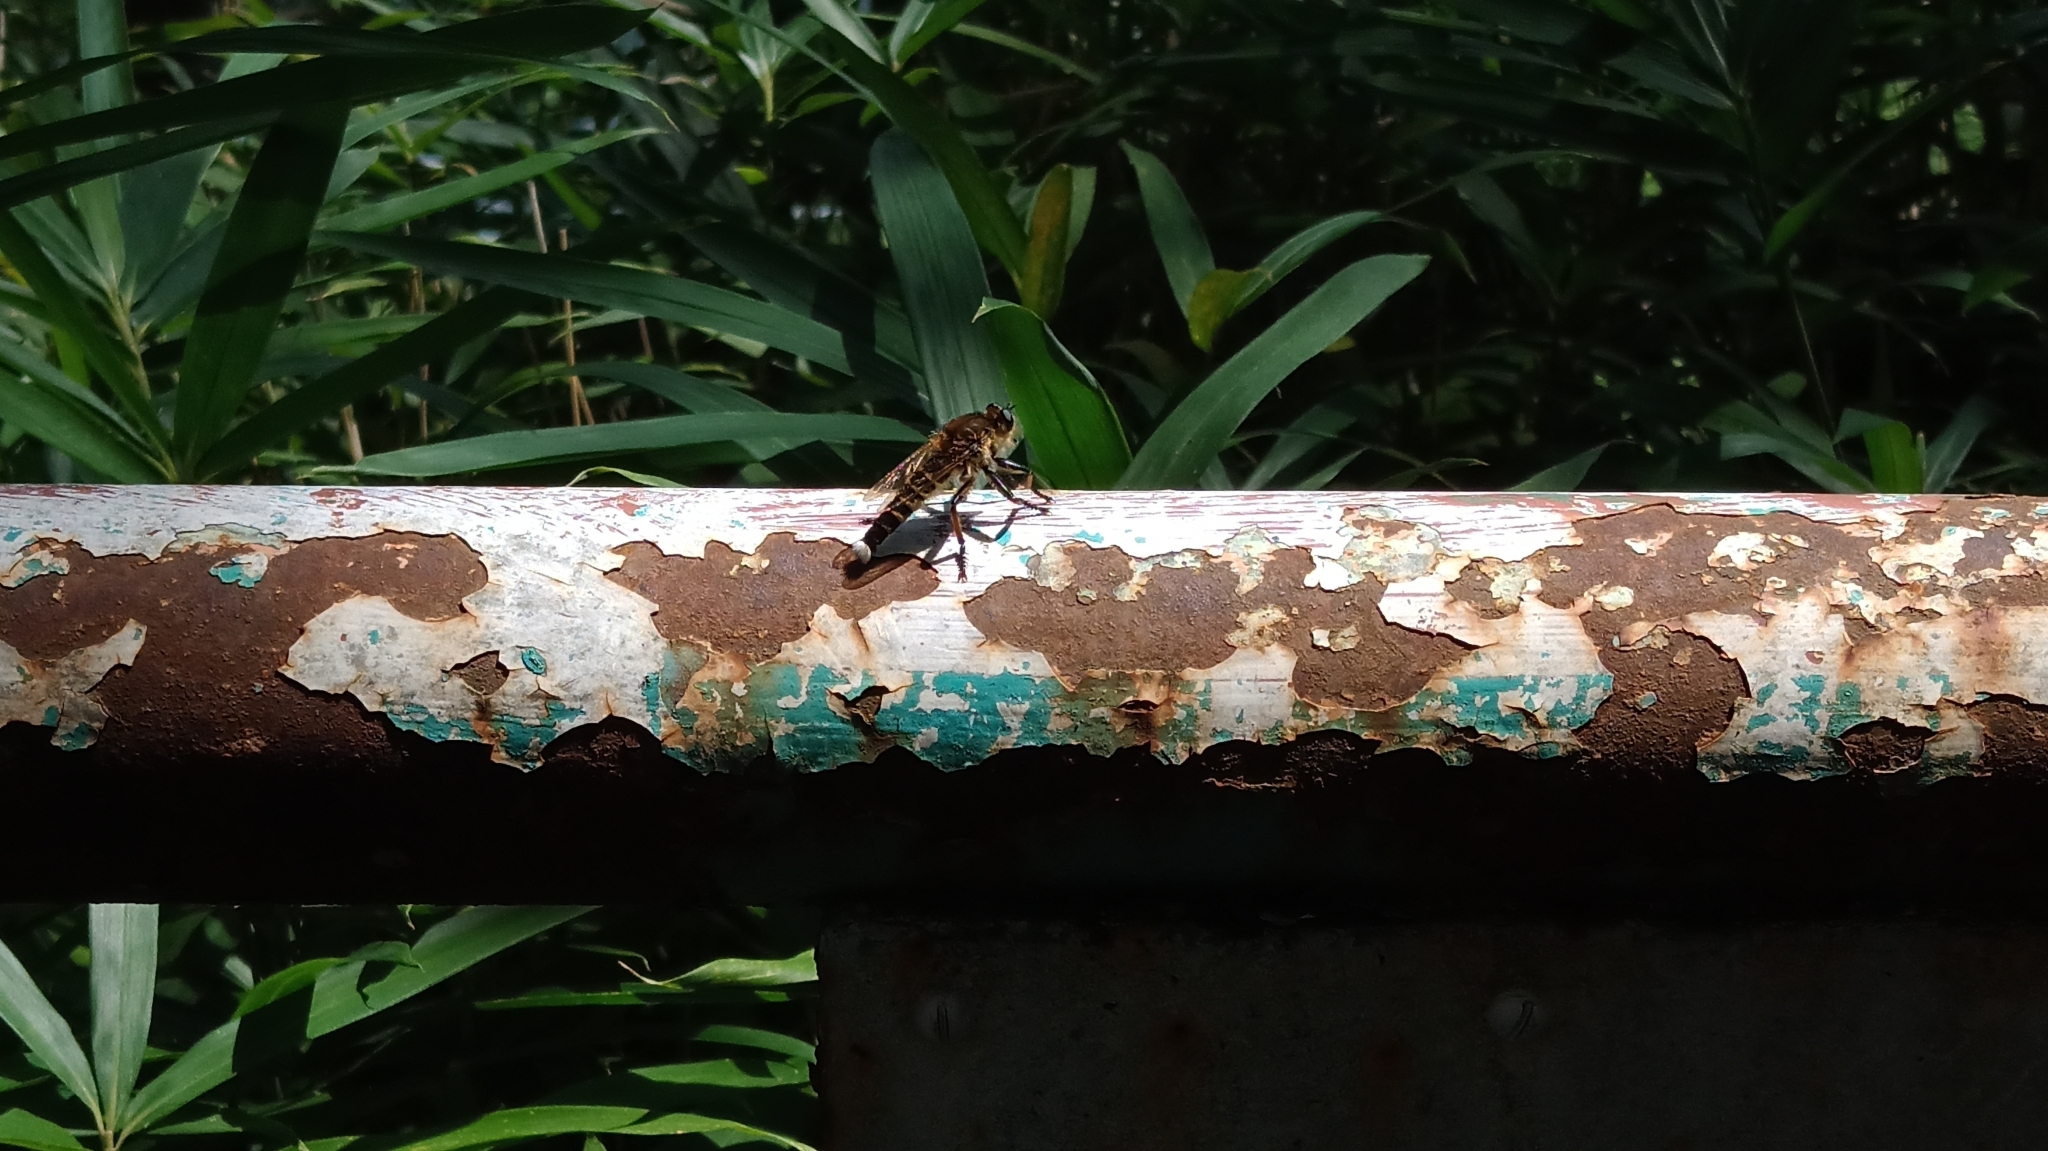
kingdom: Animalia
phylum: Arthropoda
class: Insecta
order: Diptera
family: Asilidae
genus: Promachus
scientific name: Promachus yesonicus
